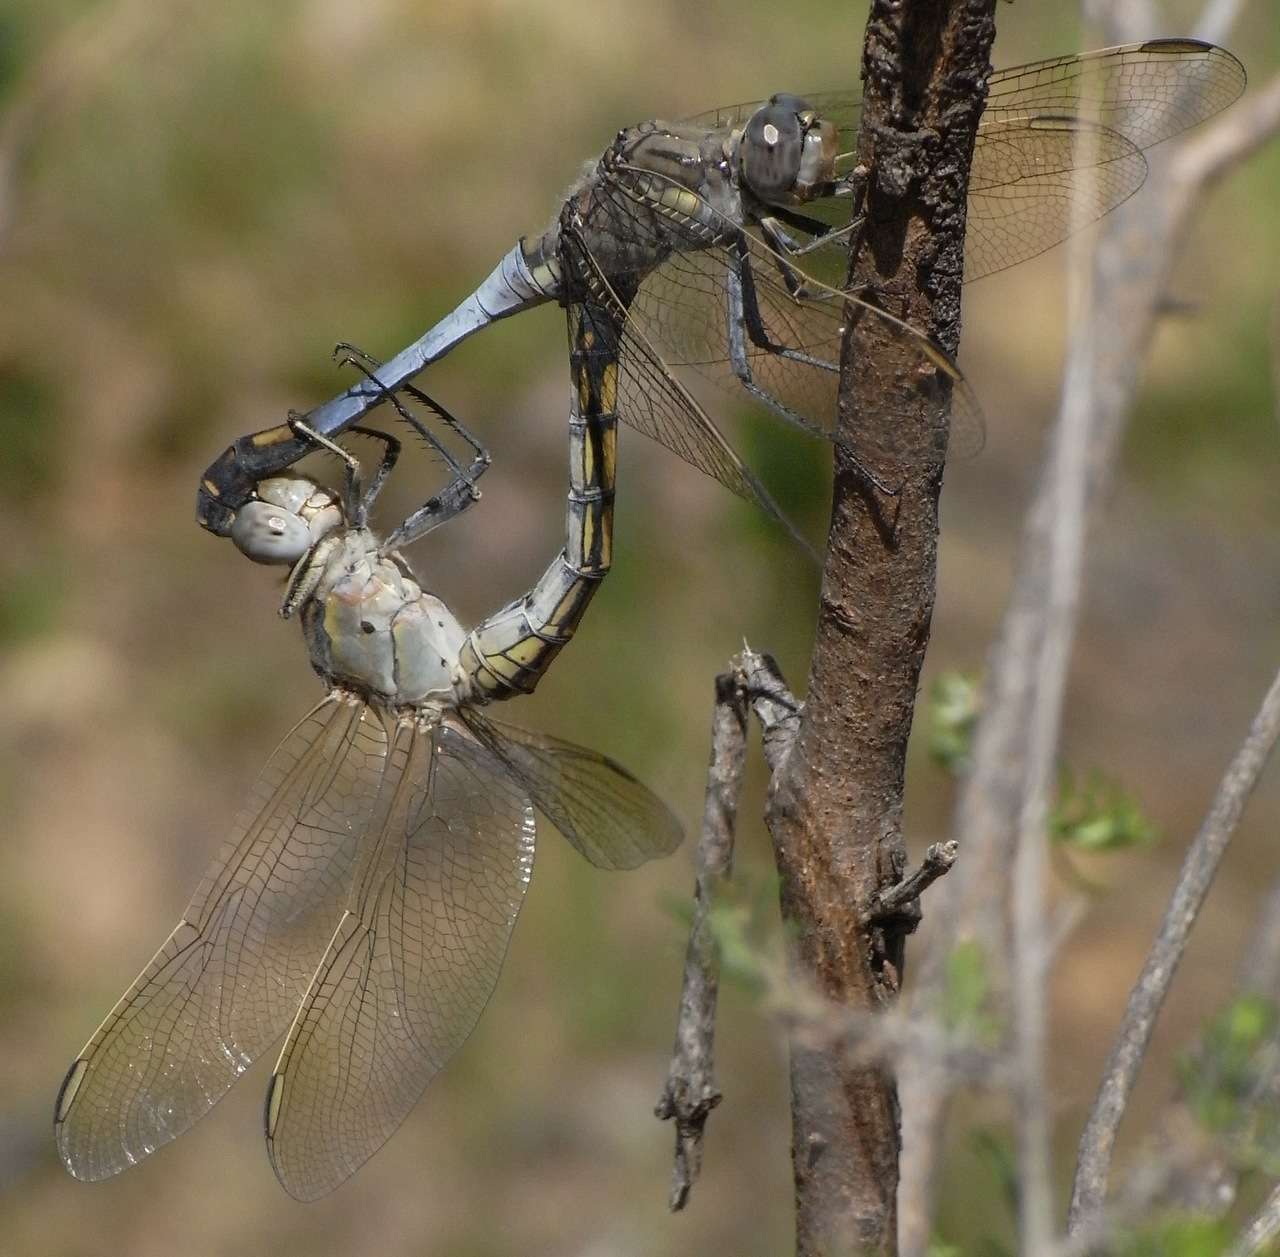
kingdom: Animalia
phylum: Arthropoda
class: Insecta
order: Odonata
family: Libellulidae
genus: Orthetrum
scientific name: Orthetrum caledonicum
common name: Blue skimmer
